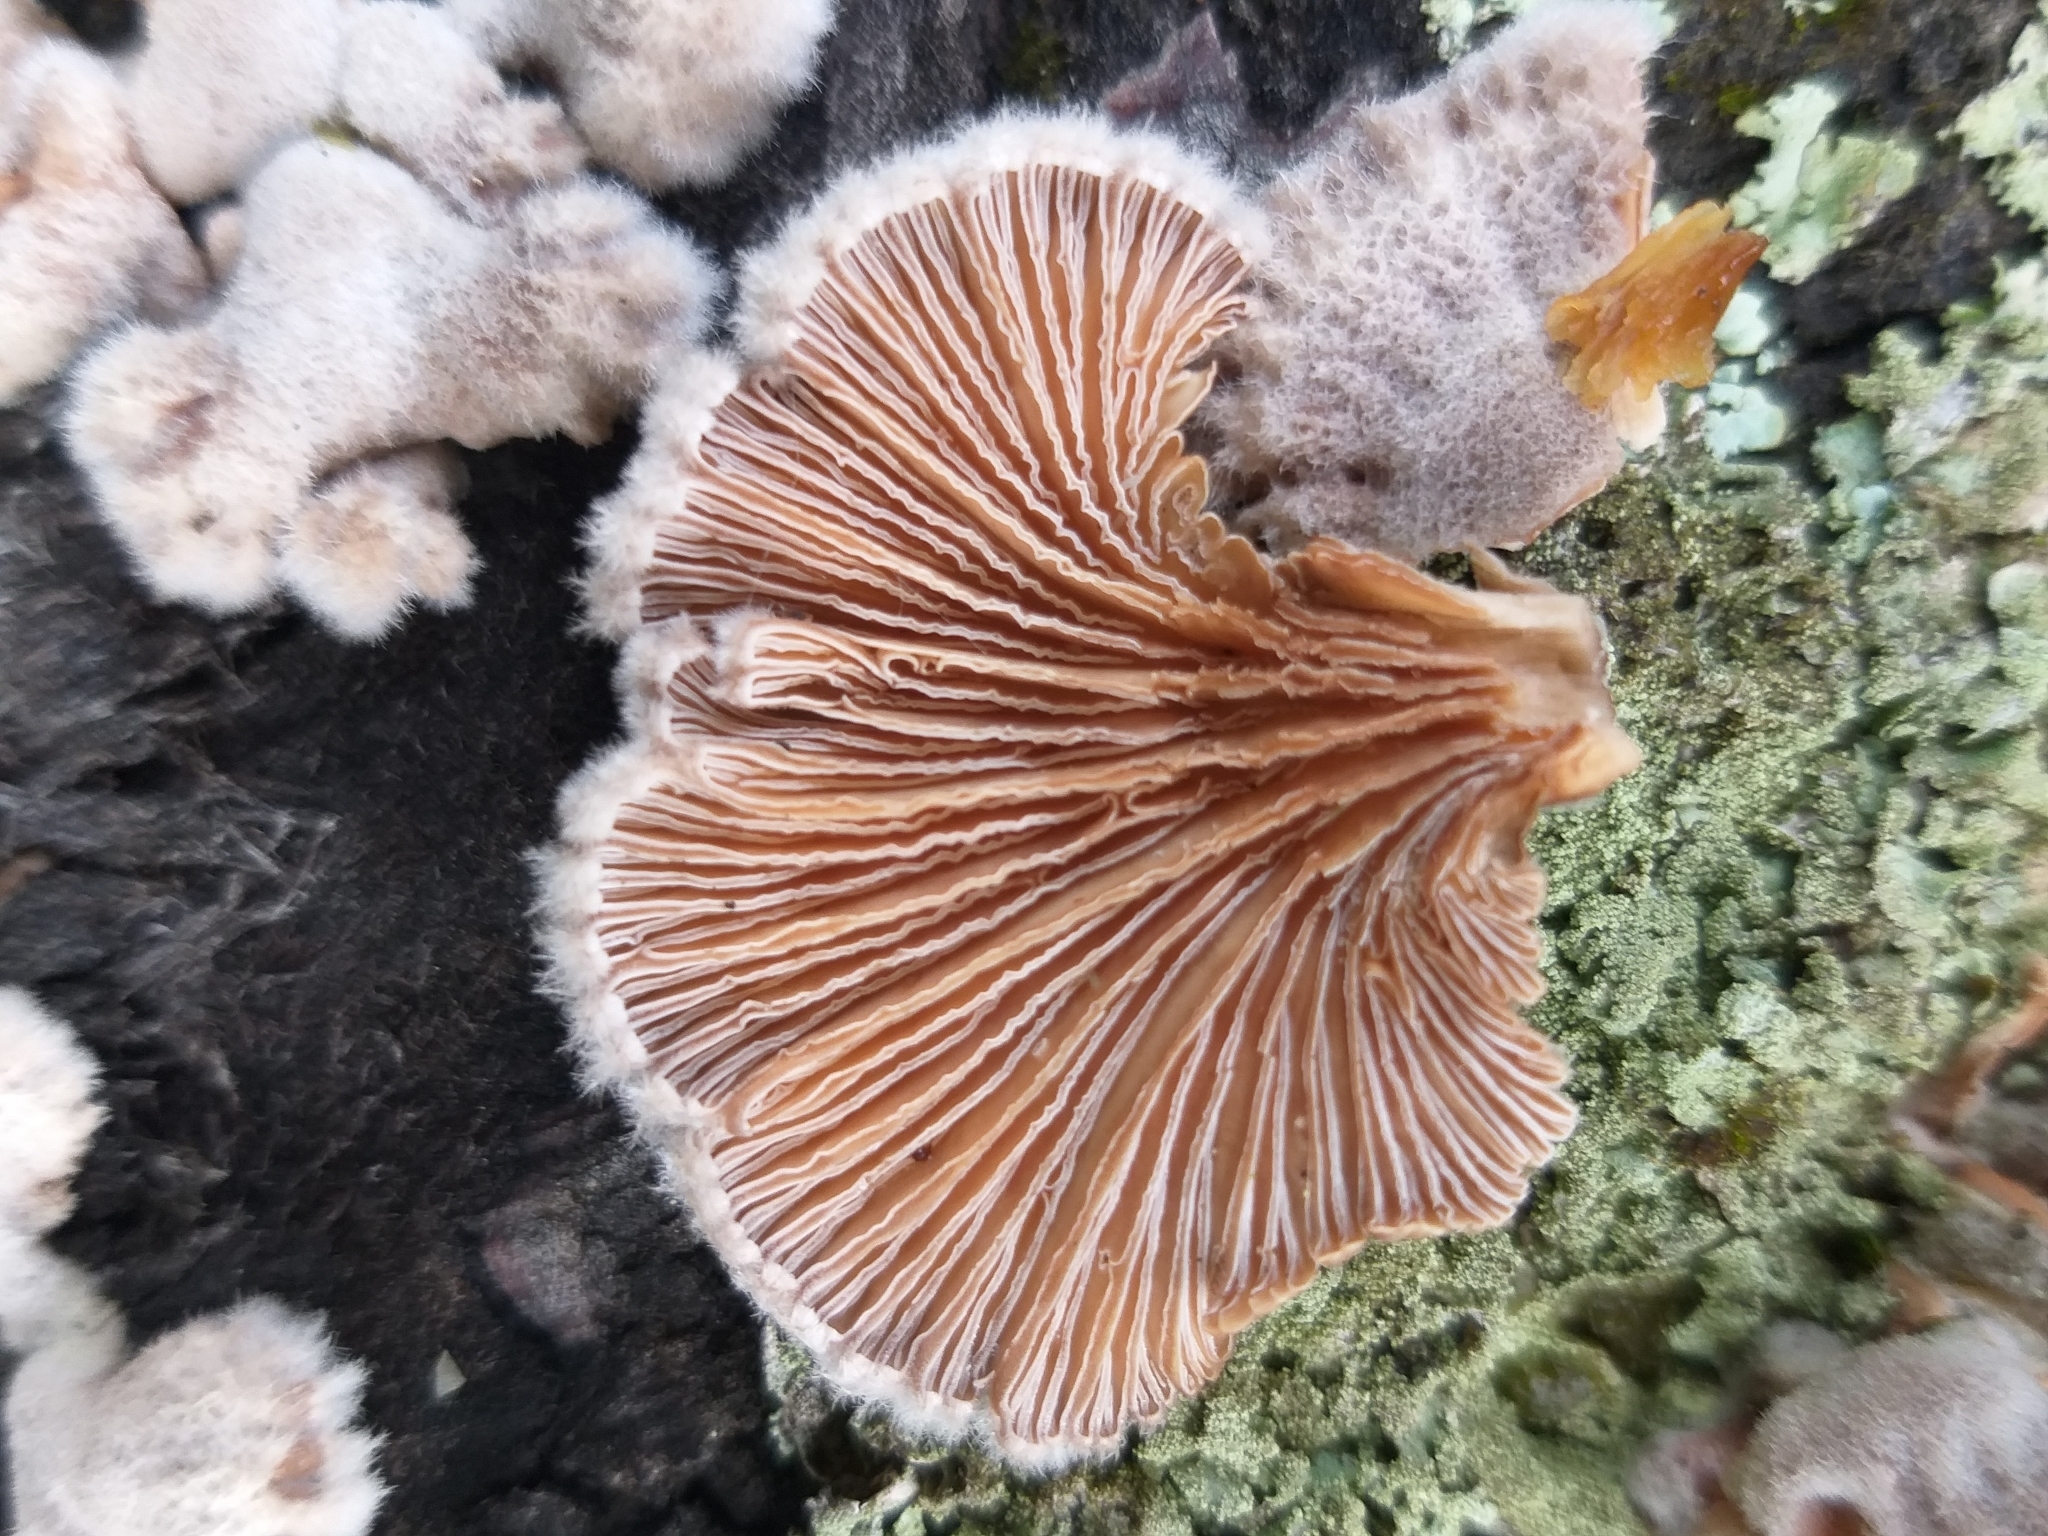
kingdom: Fungi
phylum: Basidiomycota
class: Agaricomycetes
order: Agaricales
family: Schizophyllaceae
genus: Schizophyllum
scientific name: Schizophyllum commune
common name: Common porecrust
